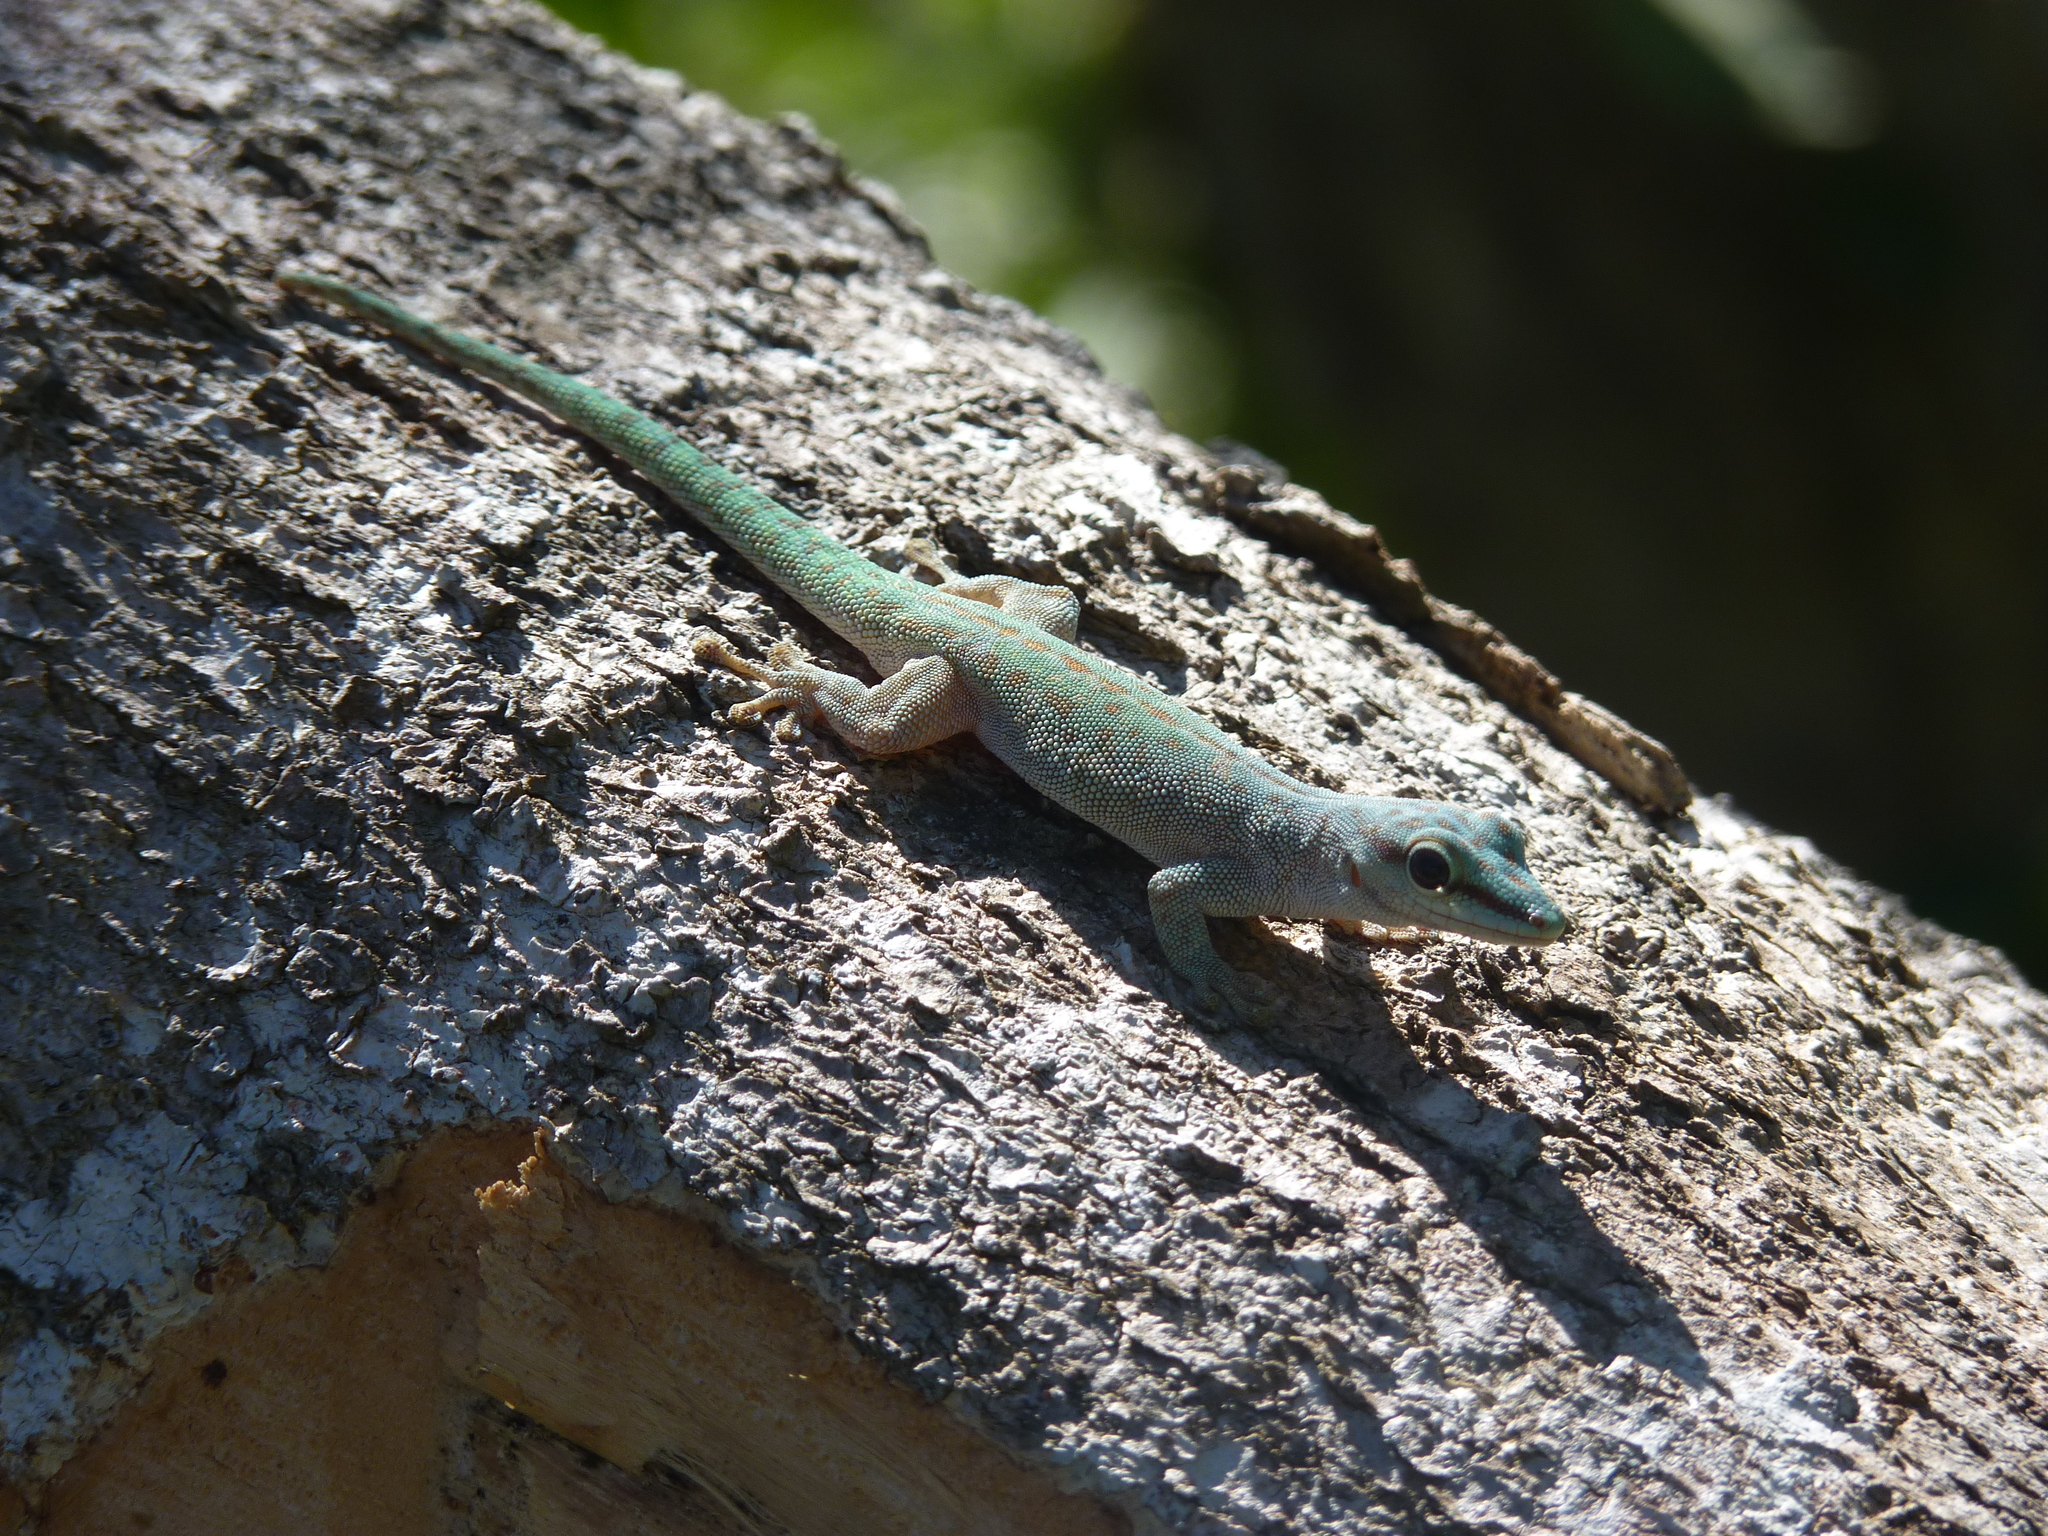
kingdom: Animalia
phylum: Chordata
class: Squamata
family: Gekkonidae
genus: Phelsuma
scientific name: Phelsuma abbotti
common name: Aldabra day gecko
